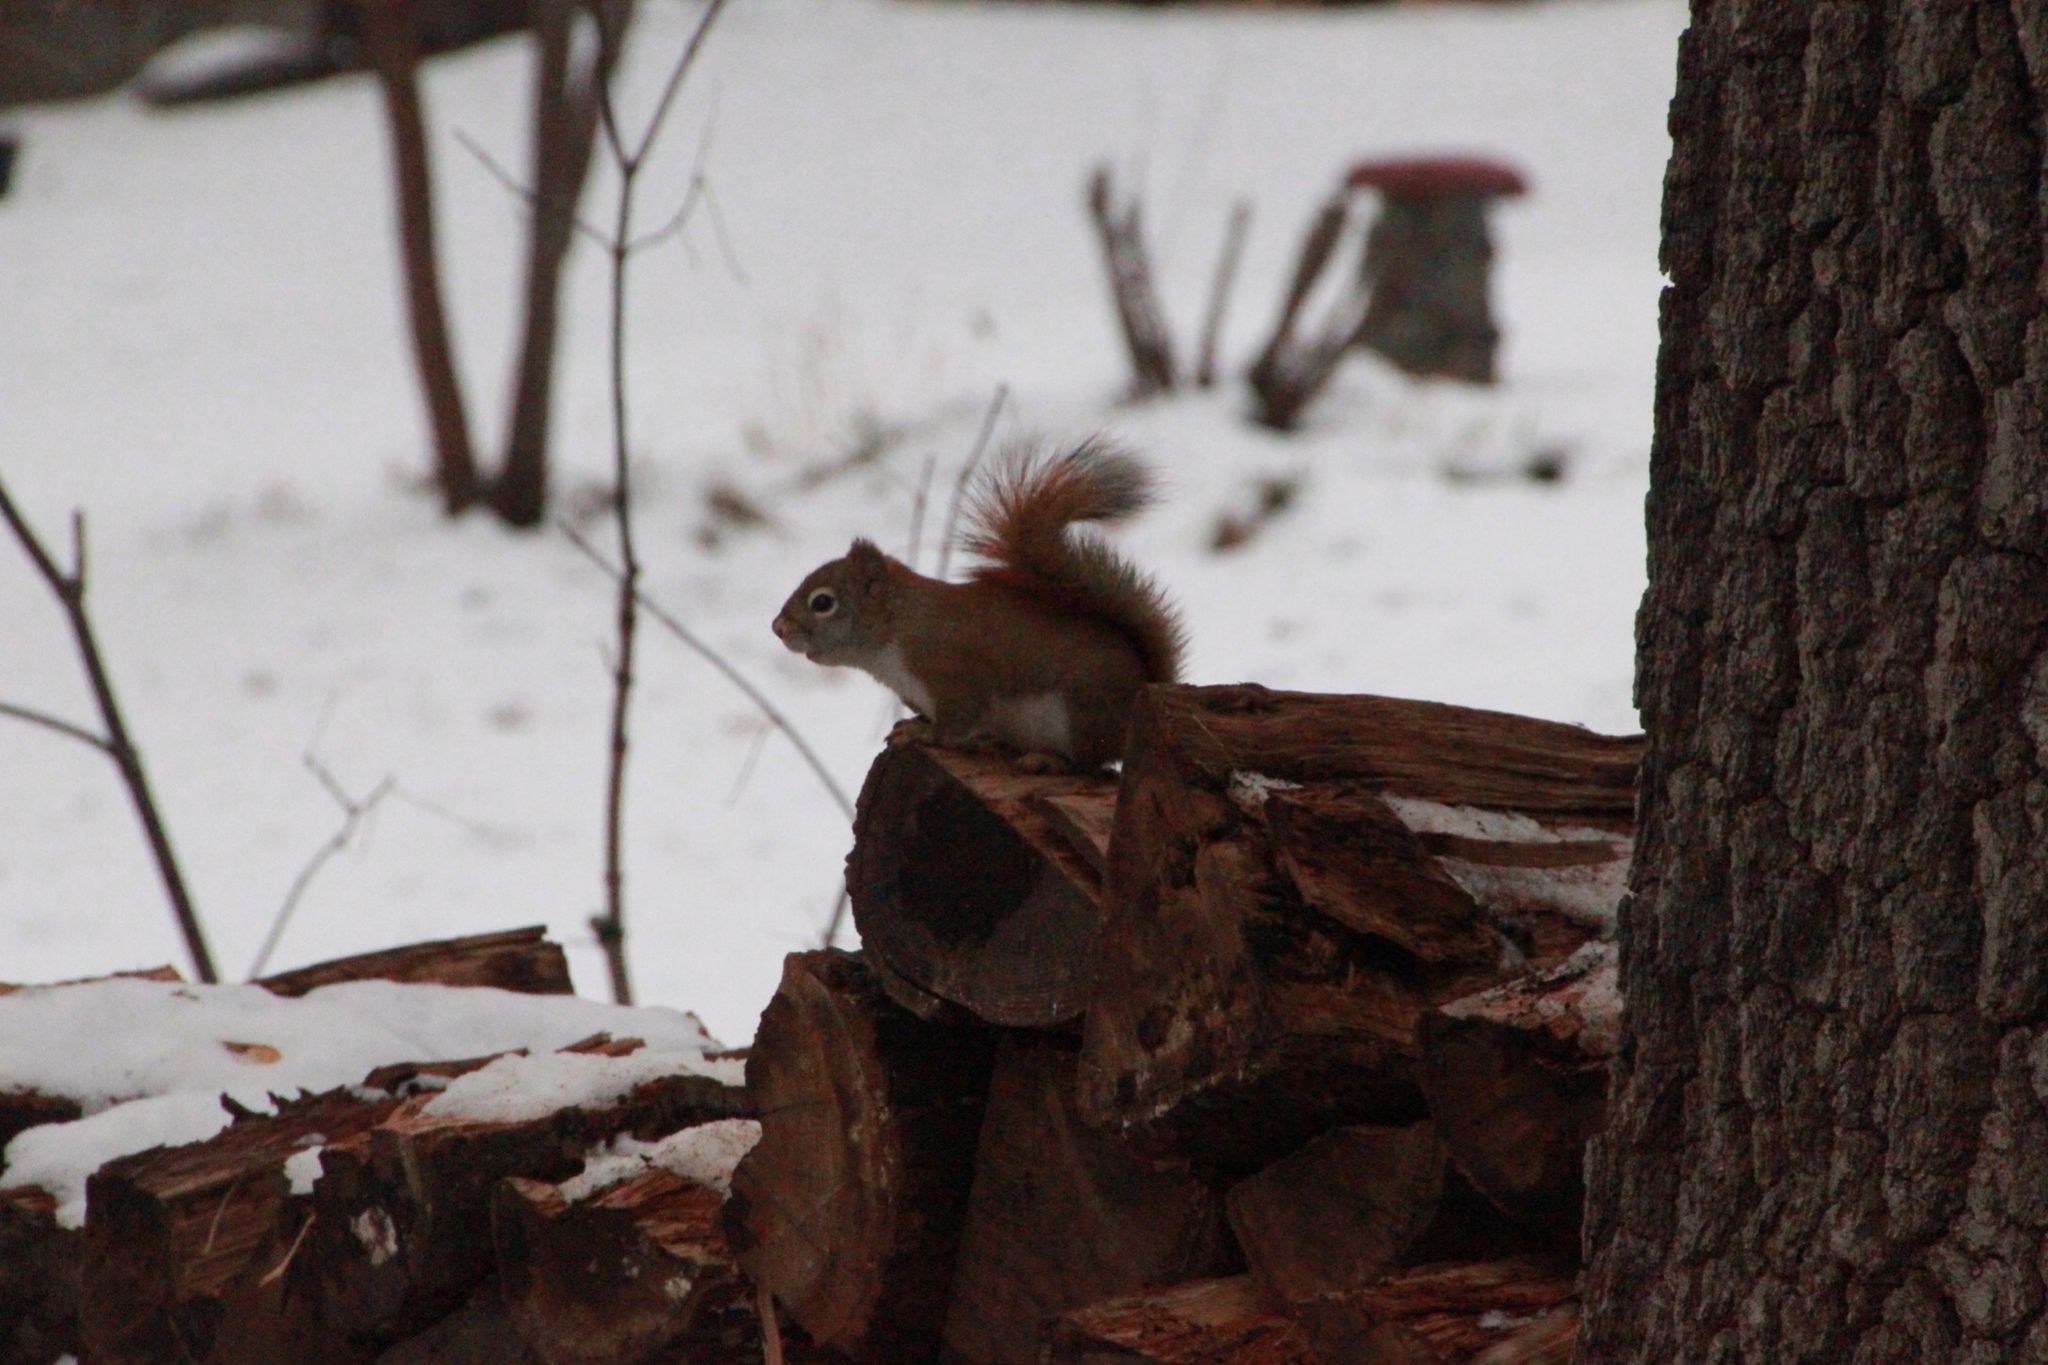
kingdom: Animalia
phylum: Chordata
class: Mammalia
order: Rodentia
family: Sciuridae
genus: Tamiasciurus
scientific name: Tamiasciurus hudsonicus
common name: Red squirrel
